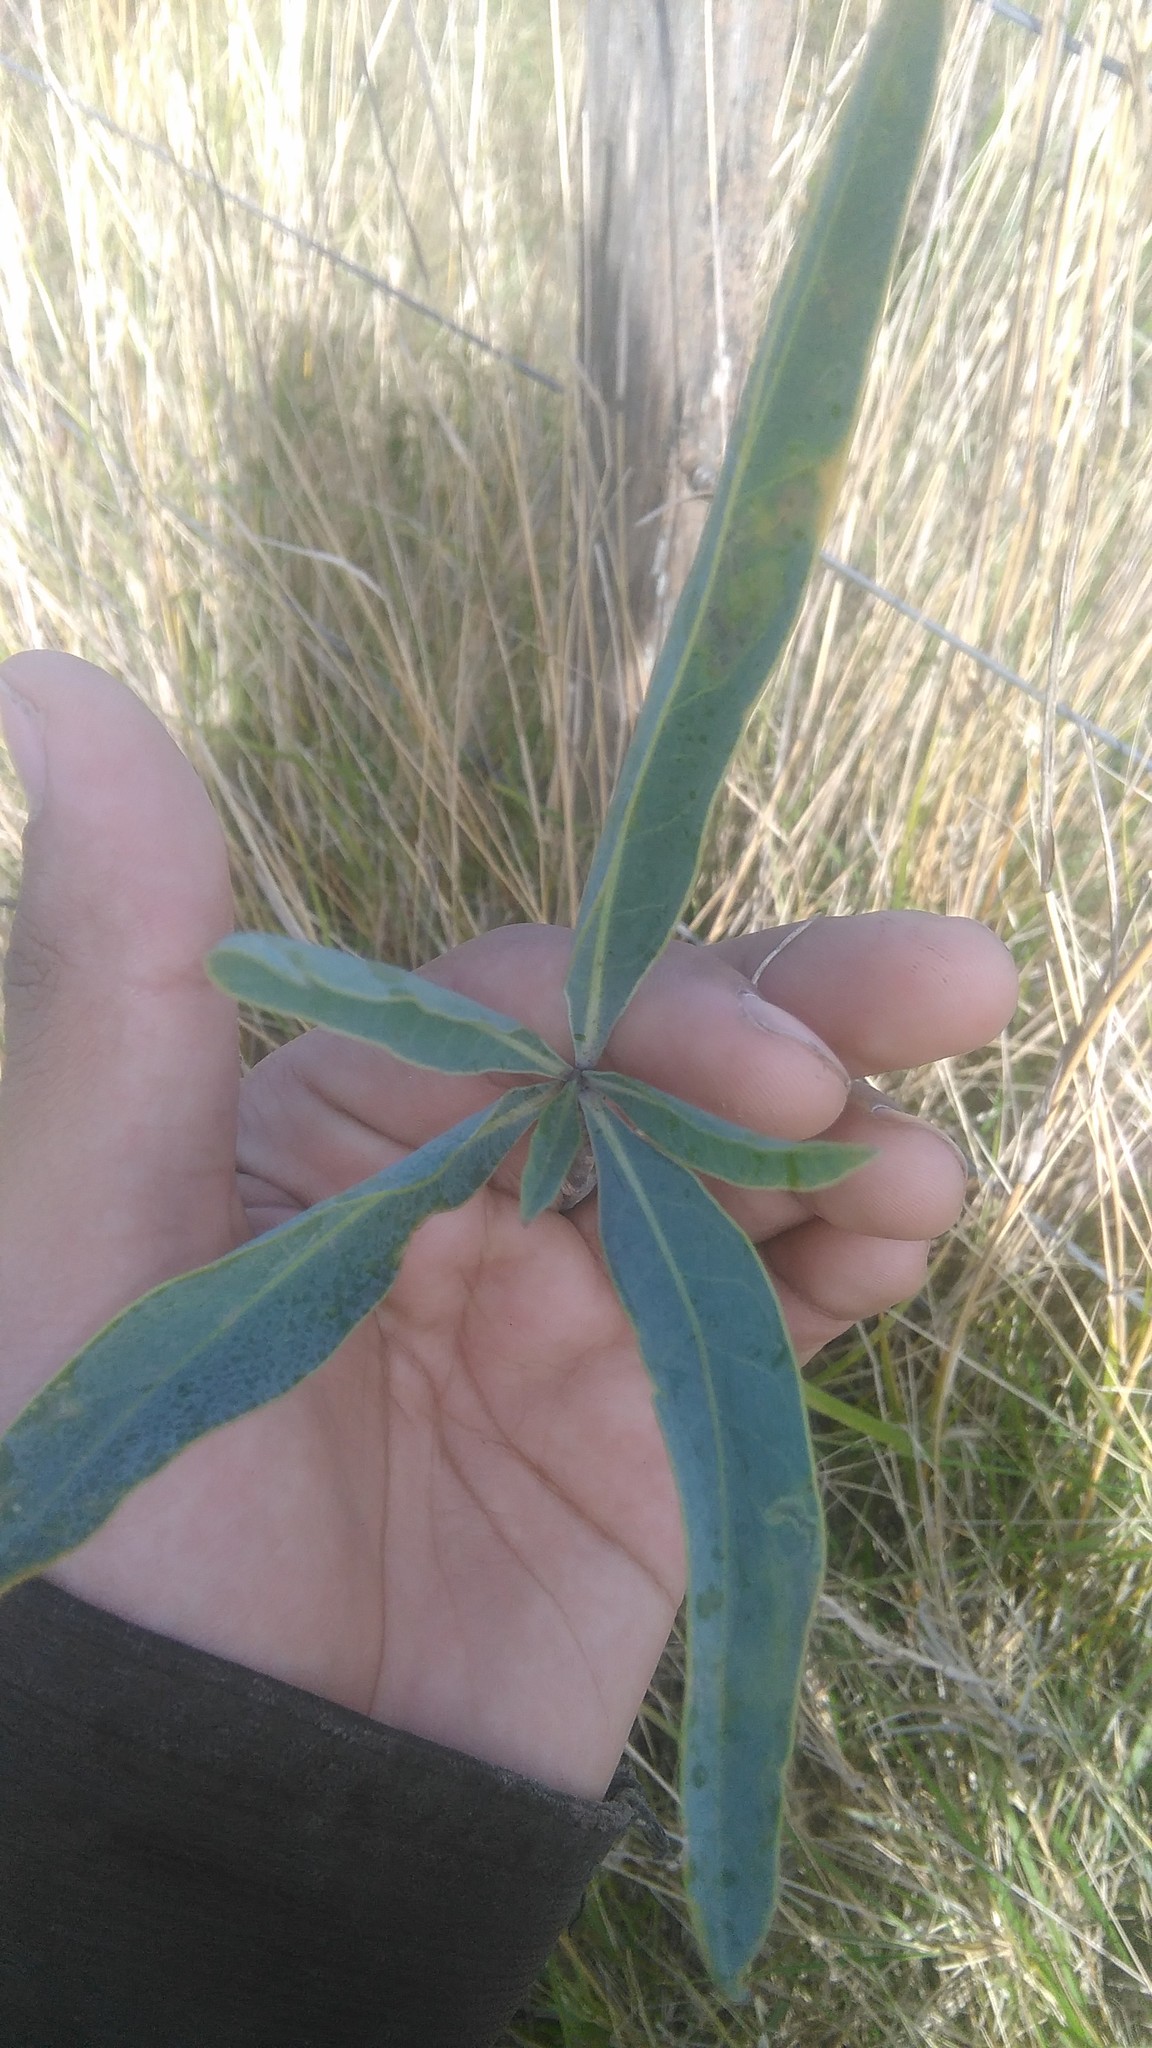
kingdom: Plantae
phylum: Tracheophyta
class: Magnoliopsida
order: Solanales
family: Solanaceae
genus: Solanum
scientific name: Solanum glaucophyllum
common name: Waxyleaf nightshade
